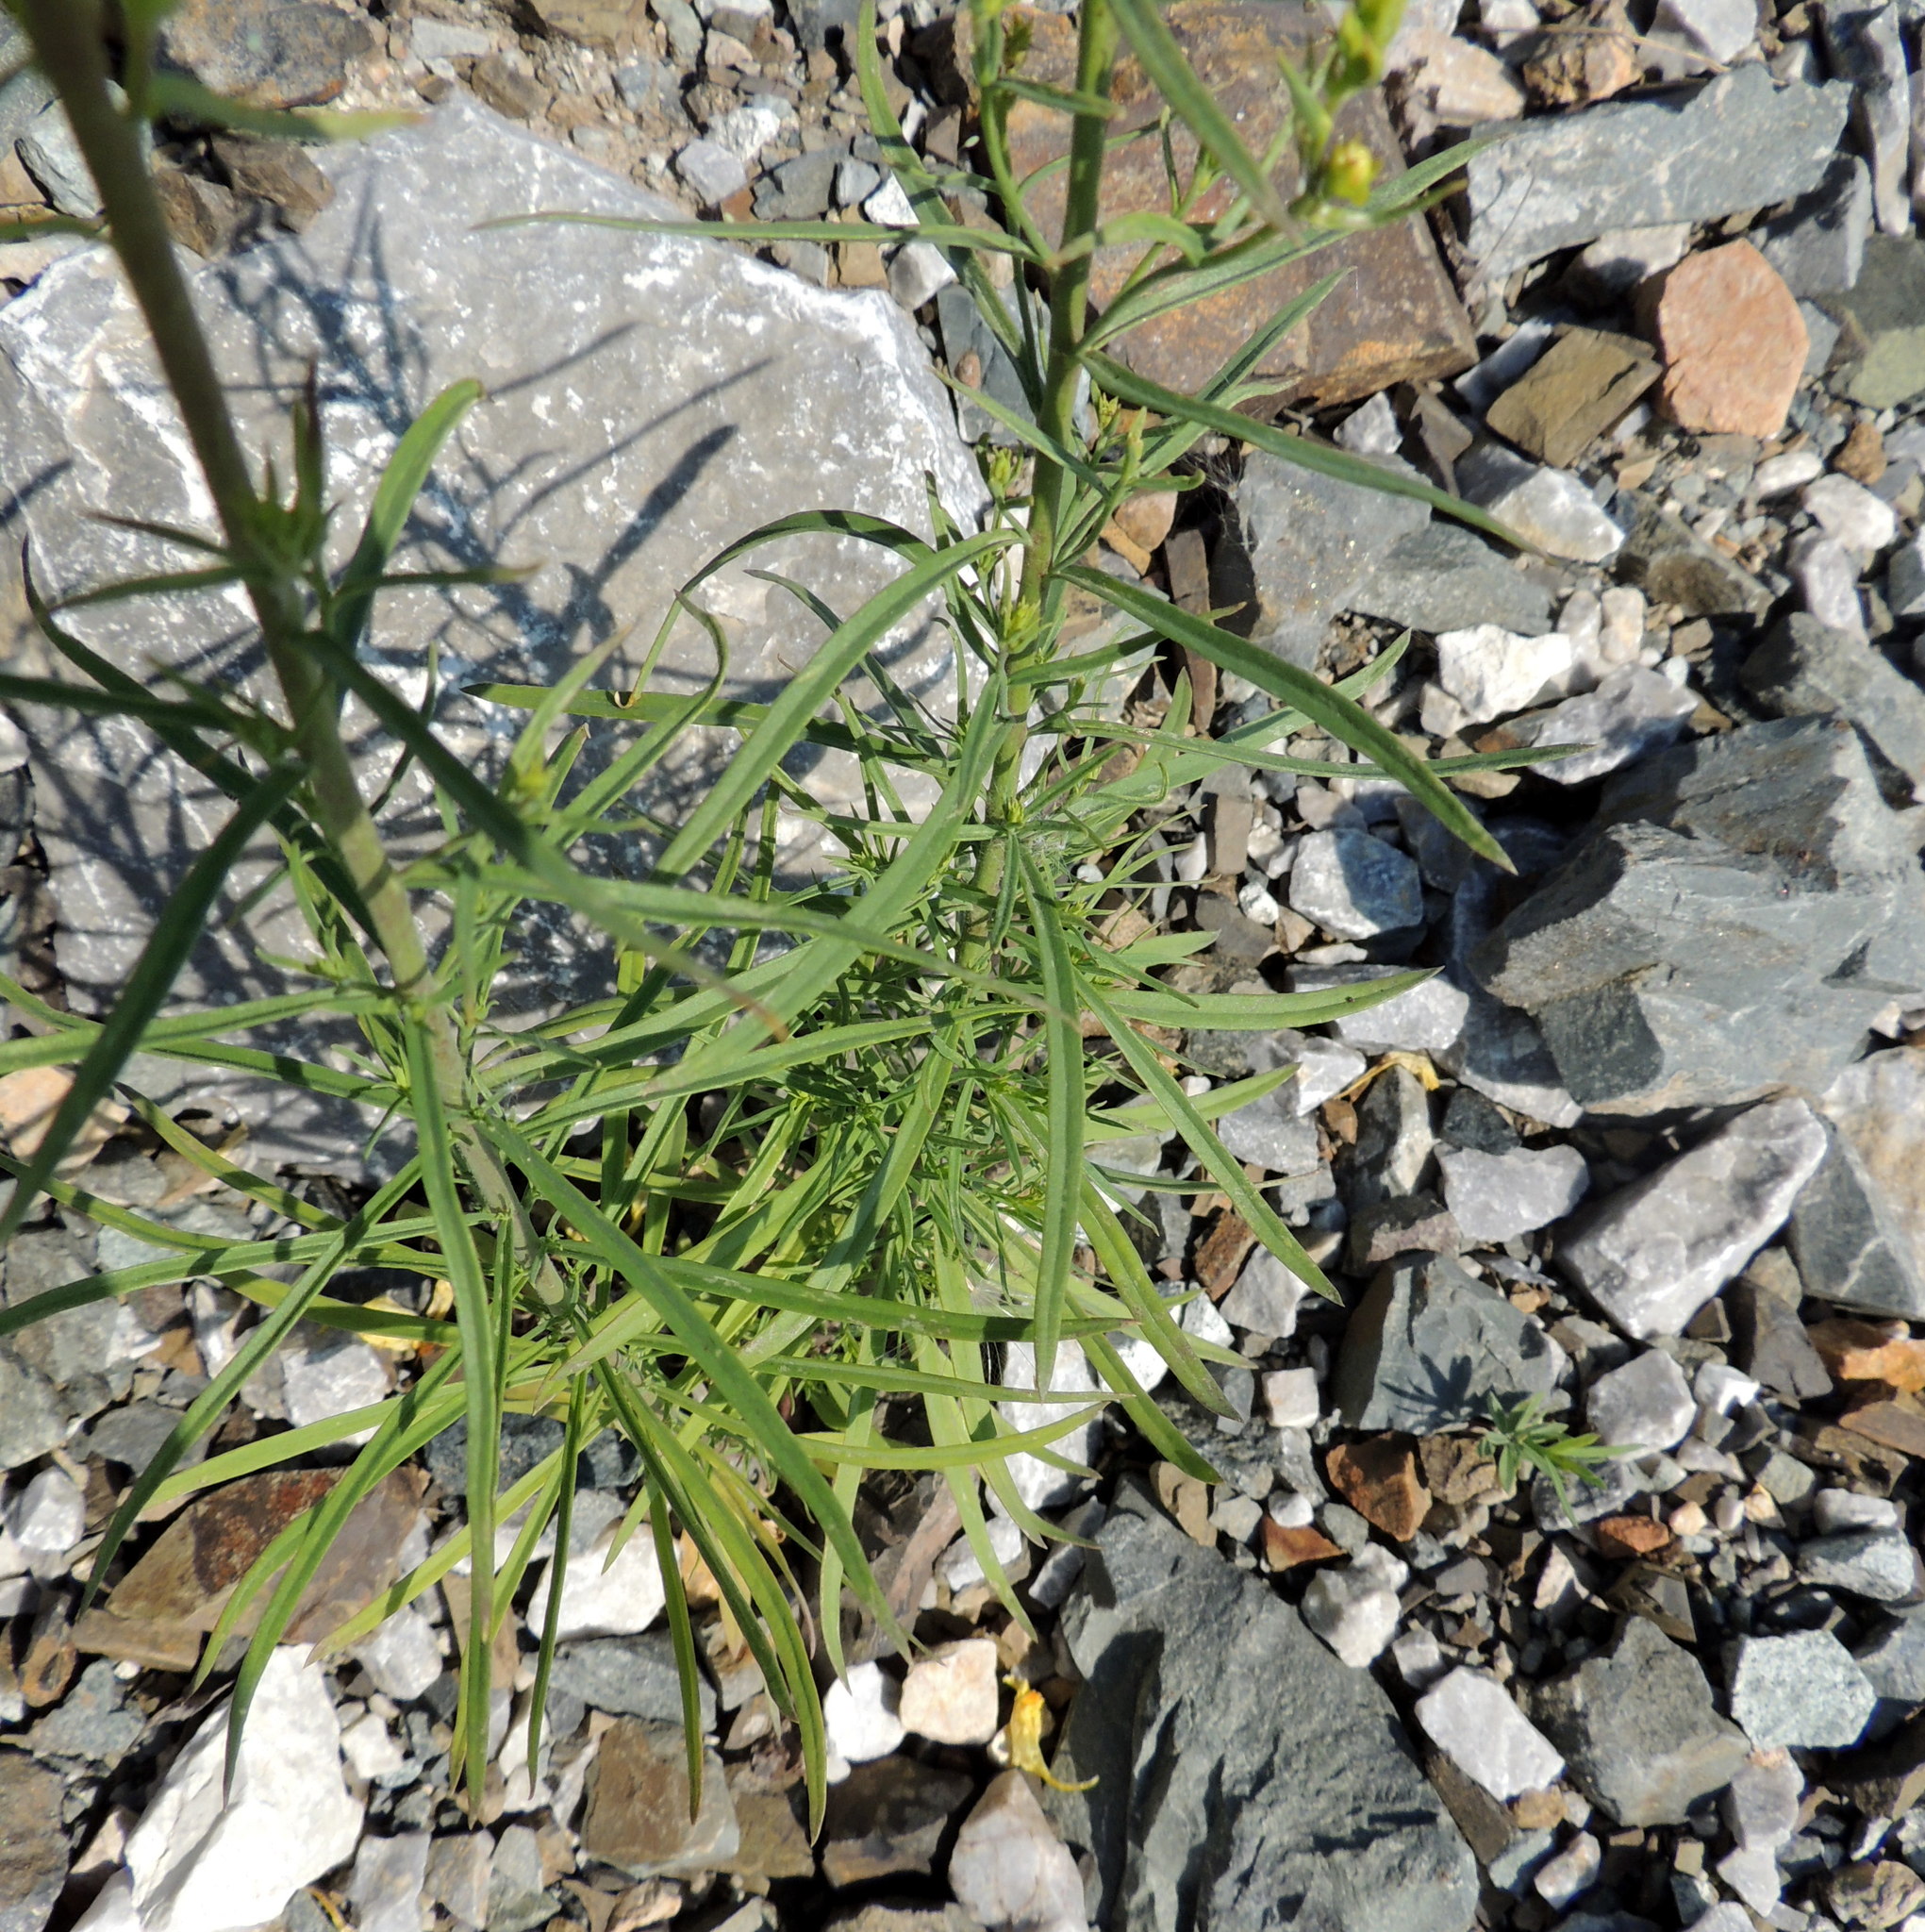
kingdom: Plantae
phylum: Tracheophyta
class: Magnoliopsida
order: Lamiales
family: Plantaginaceae
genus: Linaria
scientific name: Linaria vulgaris
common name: Butter and eggs
